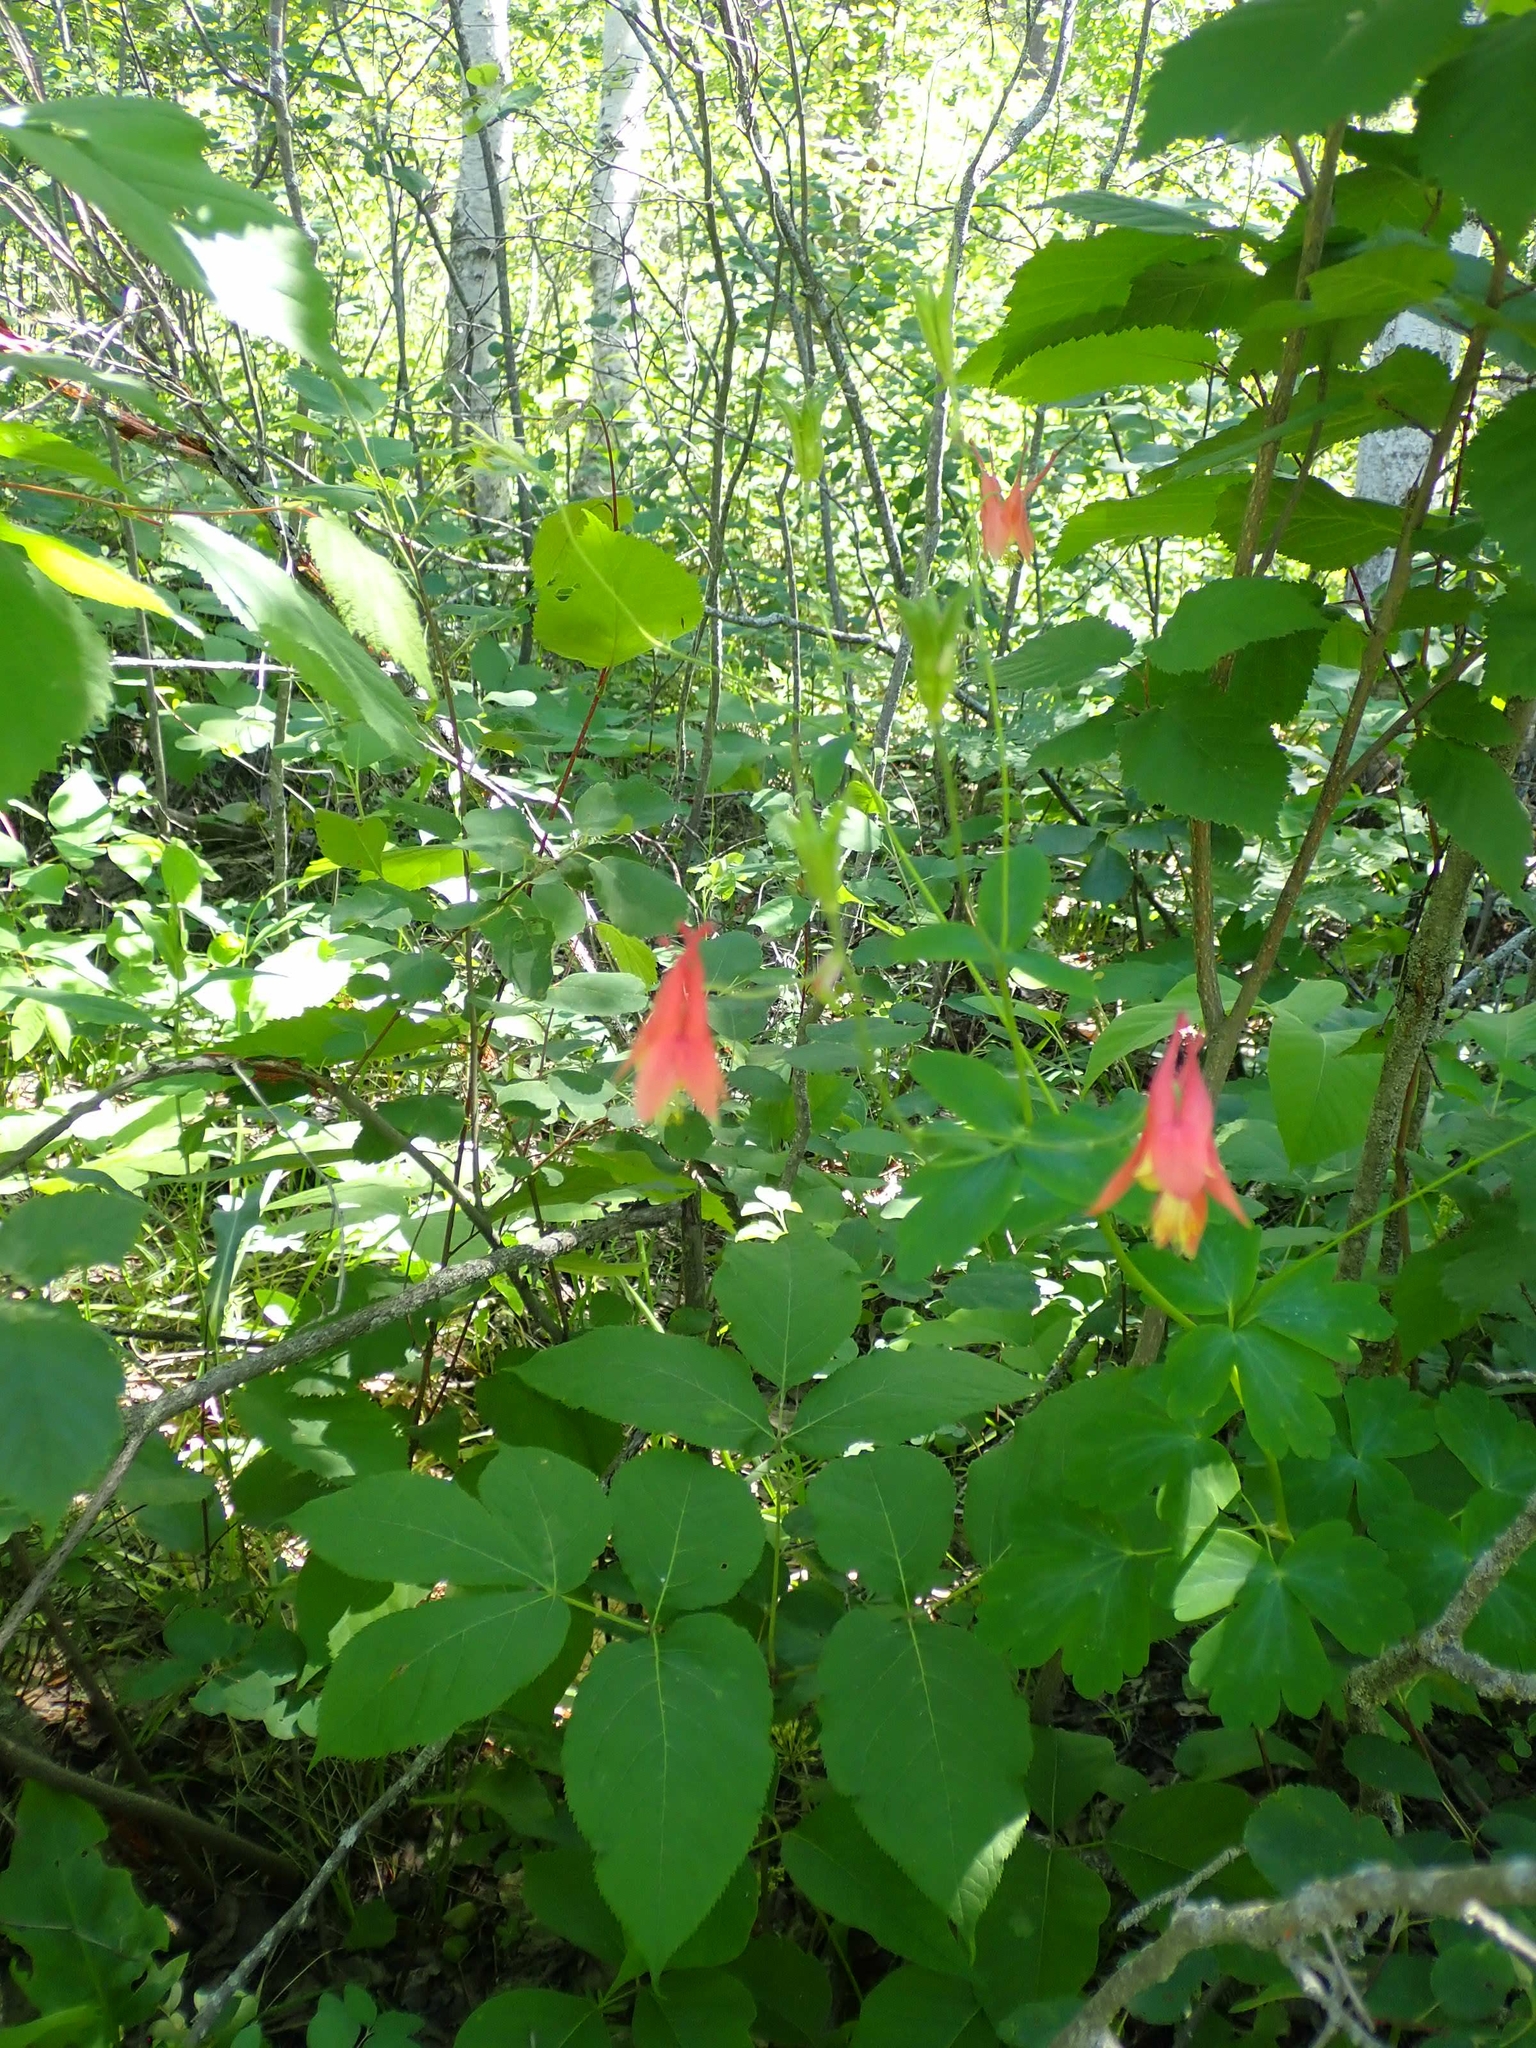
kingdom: Plantae
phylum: Tracheophyta
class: Magnoliopsida
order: Ranunculales
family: Ranunculaceae
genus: Aquilegia
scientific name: Aquilegia canadensis
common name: American columbine
